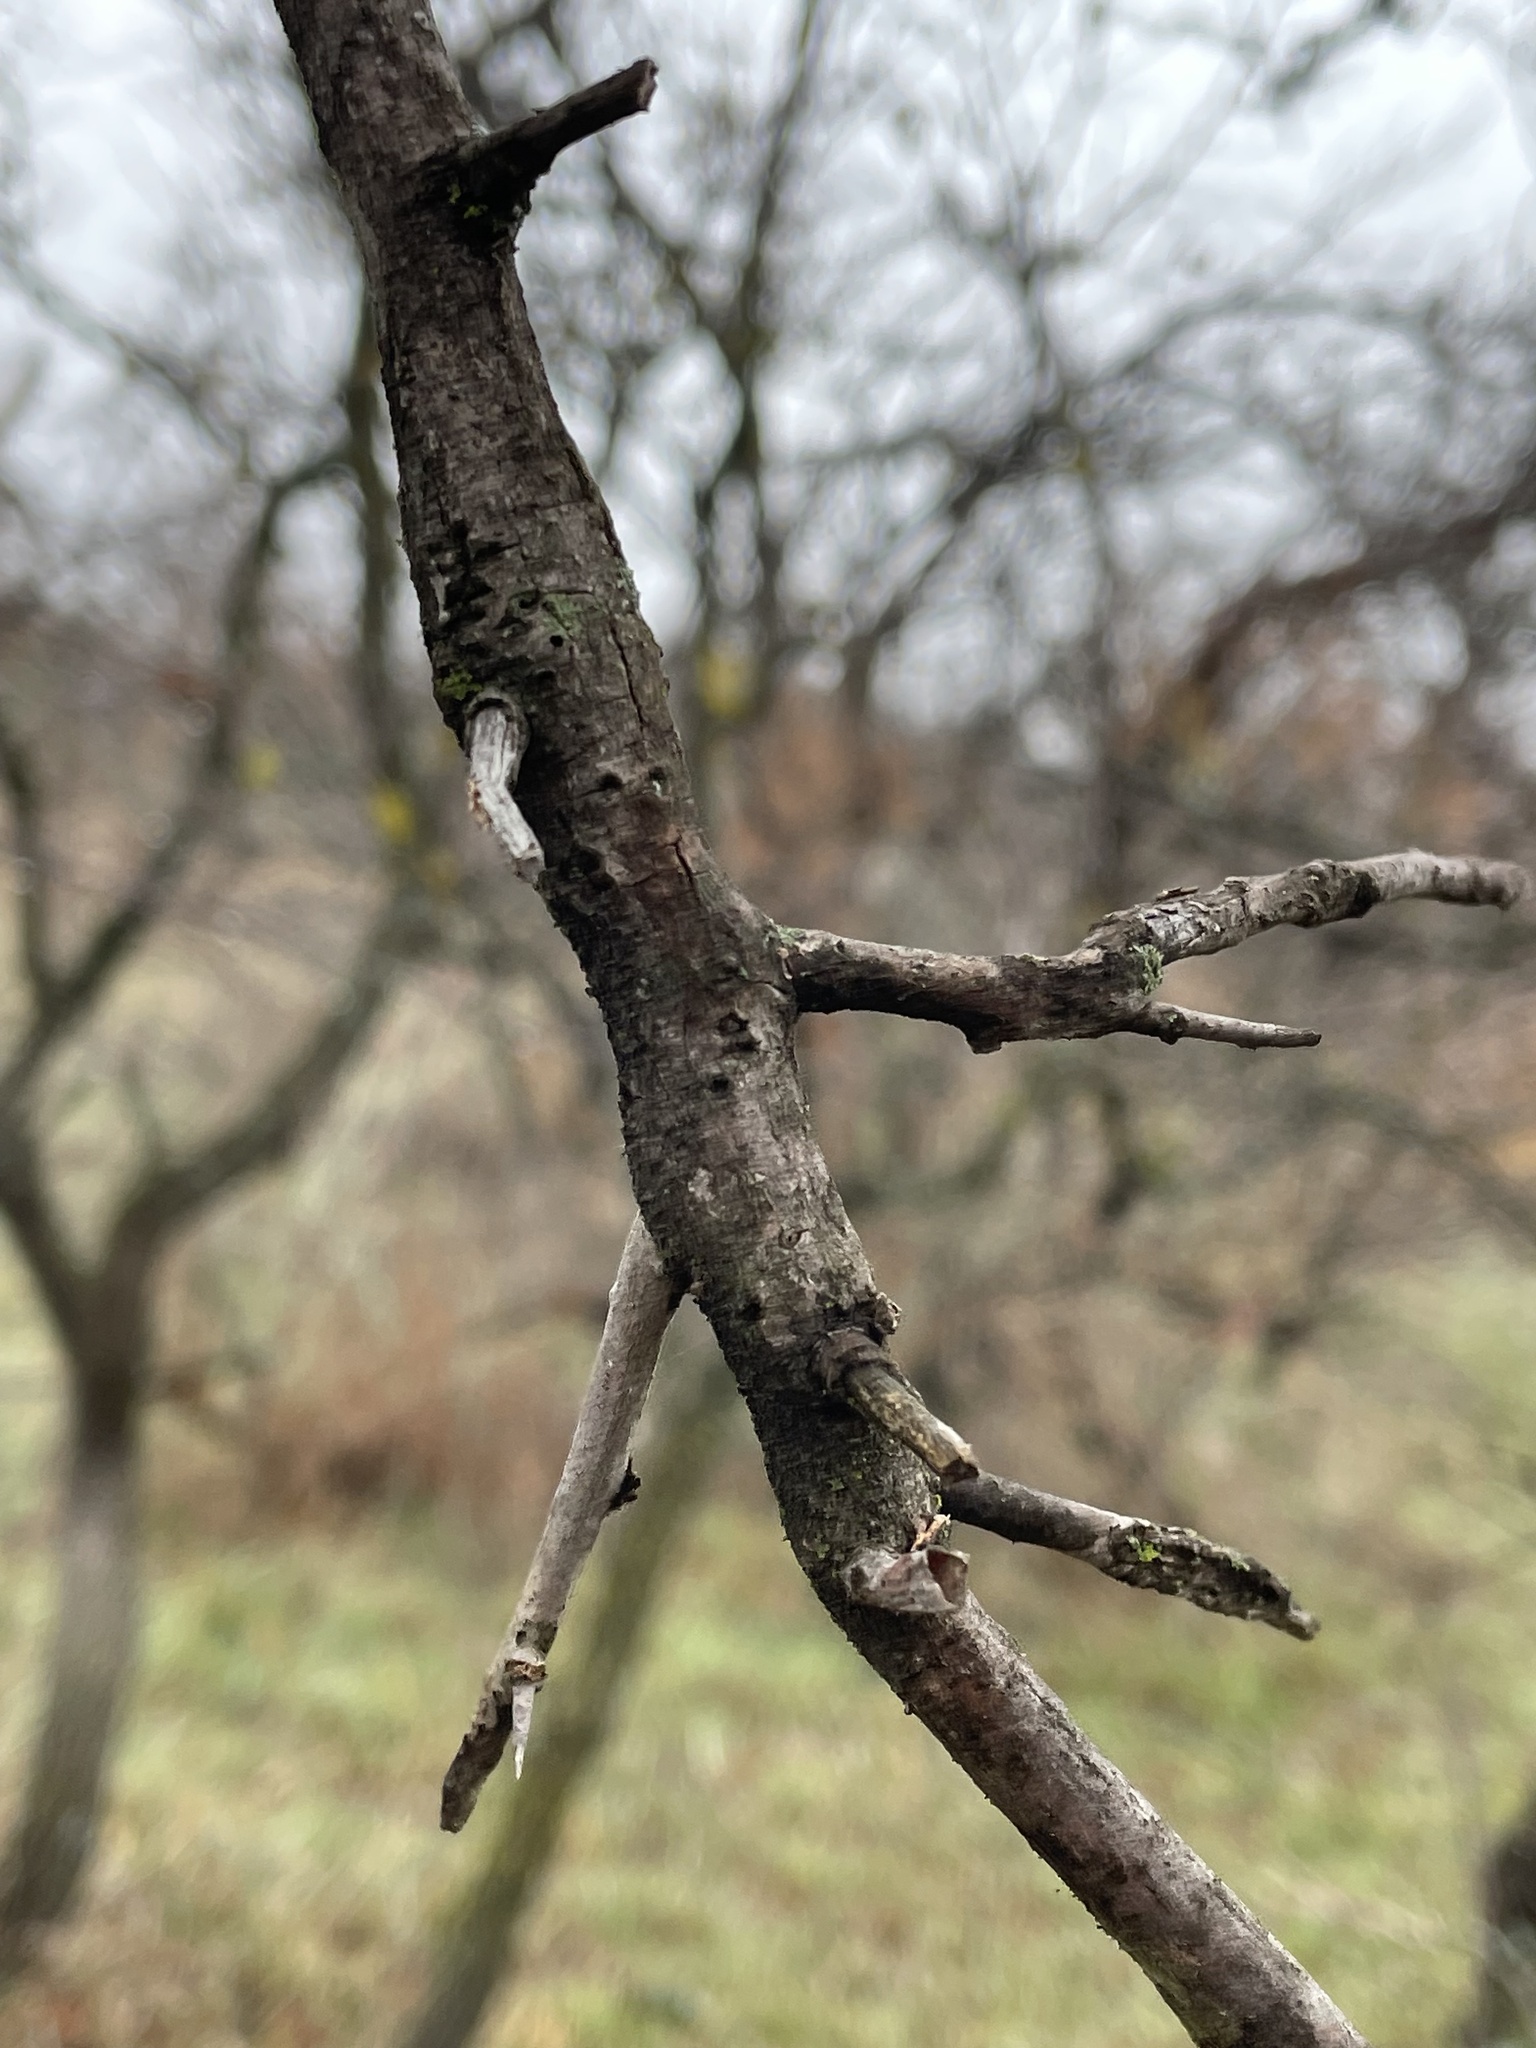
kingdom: Animalia
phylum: Arthropoda
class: Insecta
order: Diptera
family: Cecidomyiidae
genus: Bruggmanniella
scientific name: Bruggmanniella bumeliae
